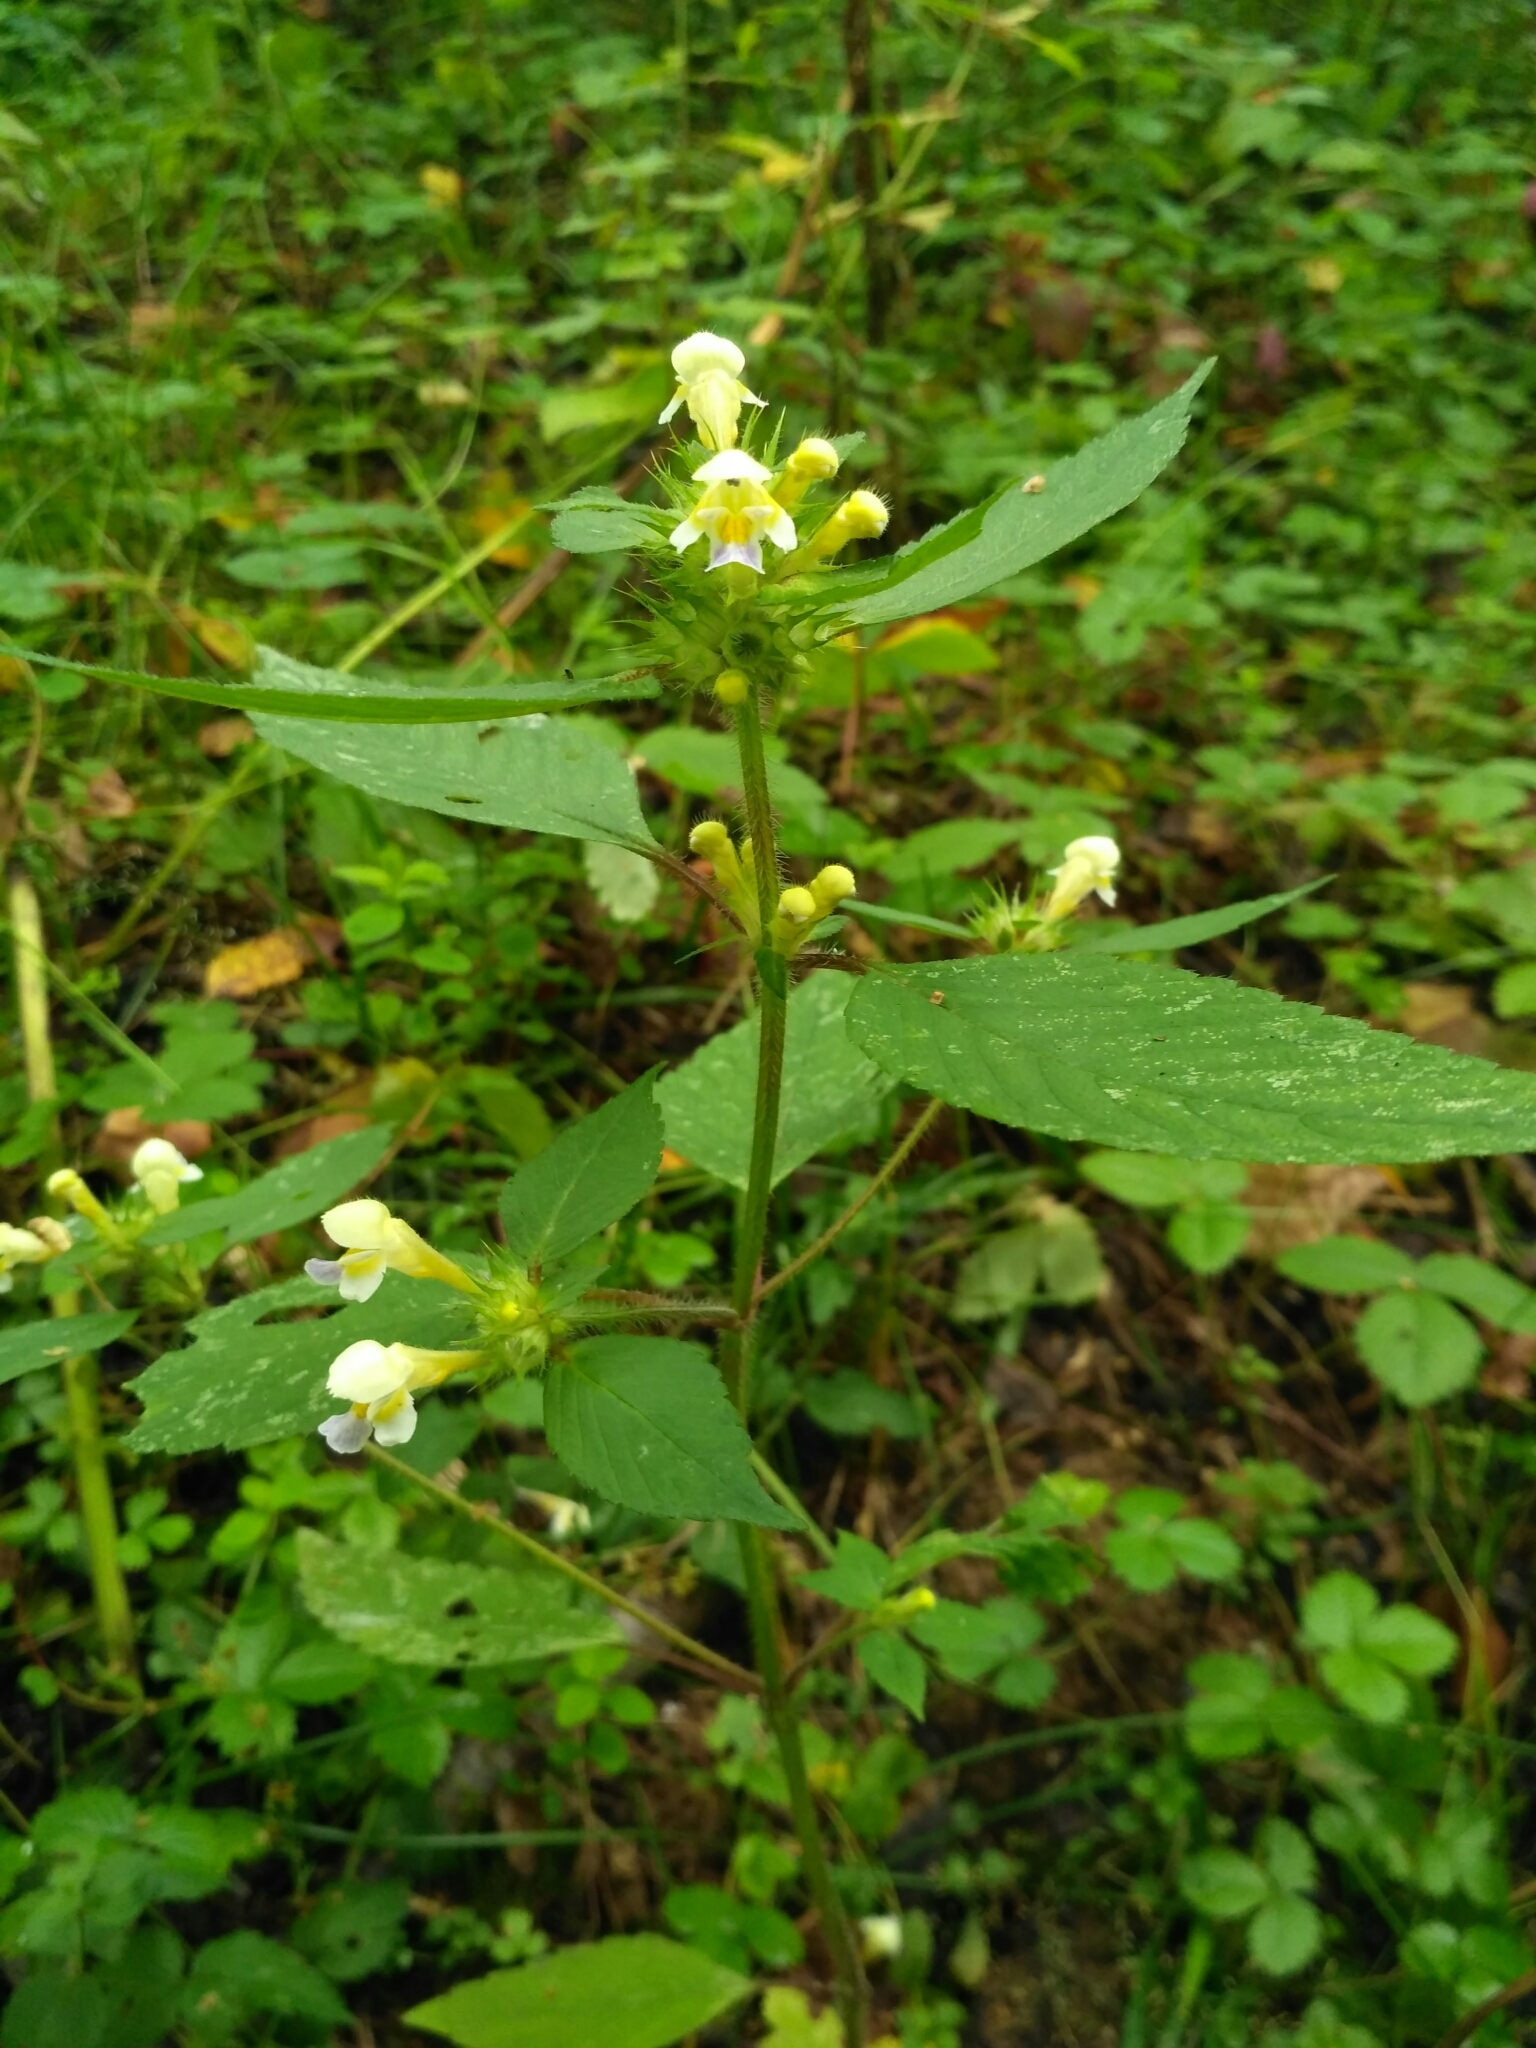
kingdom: Plantae
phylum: Tracheophyta
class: Magnoliopsida
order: Lamiales
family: Lamiaceae
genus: Galeopsis
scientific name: Galeopsis speciosa
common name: Large-flowered hemp-nettle
